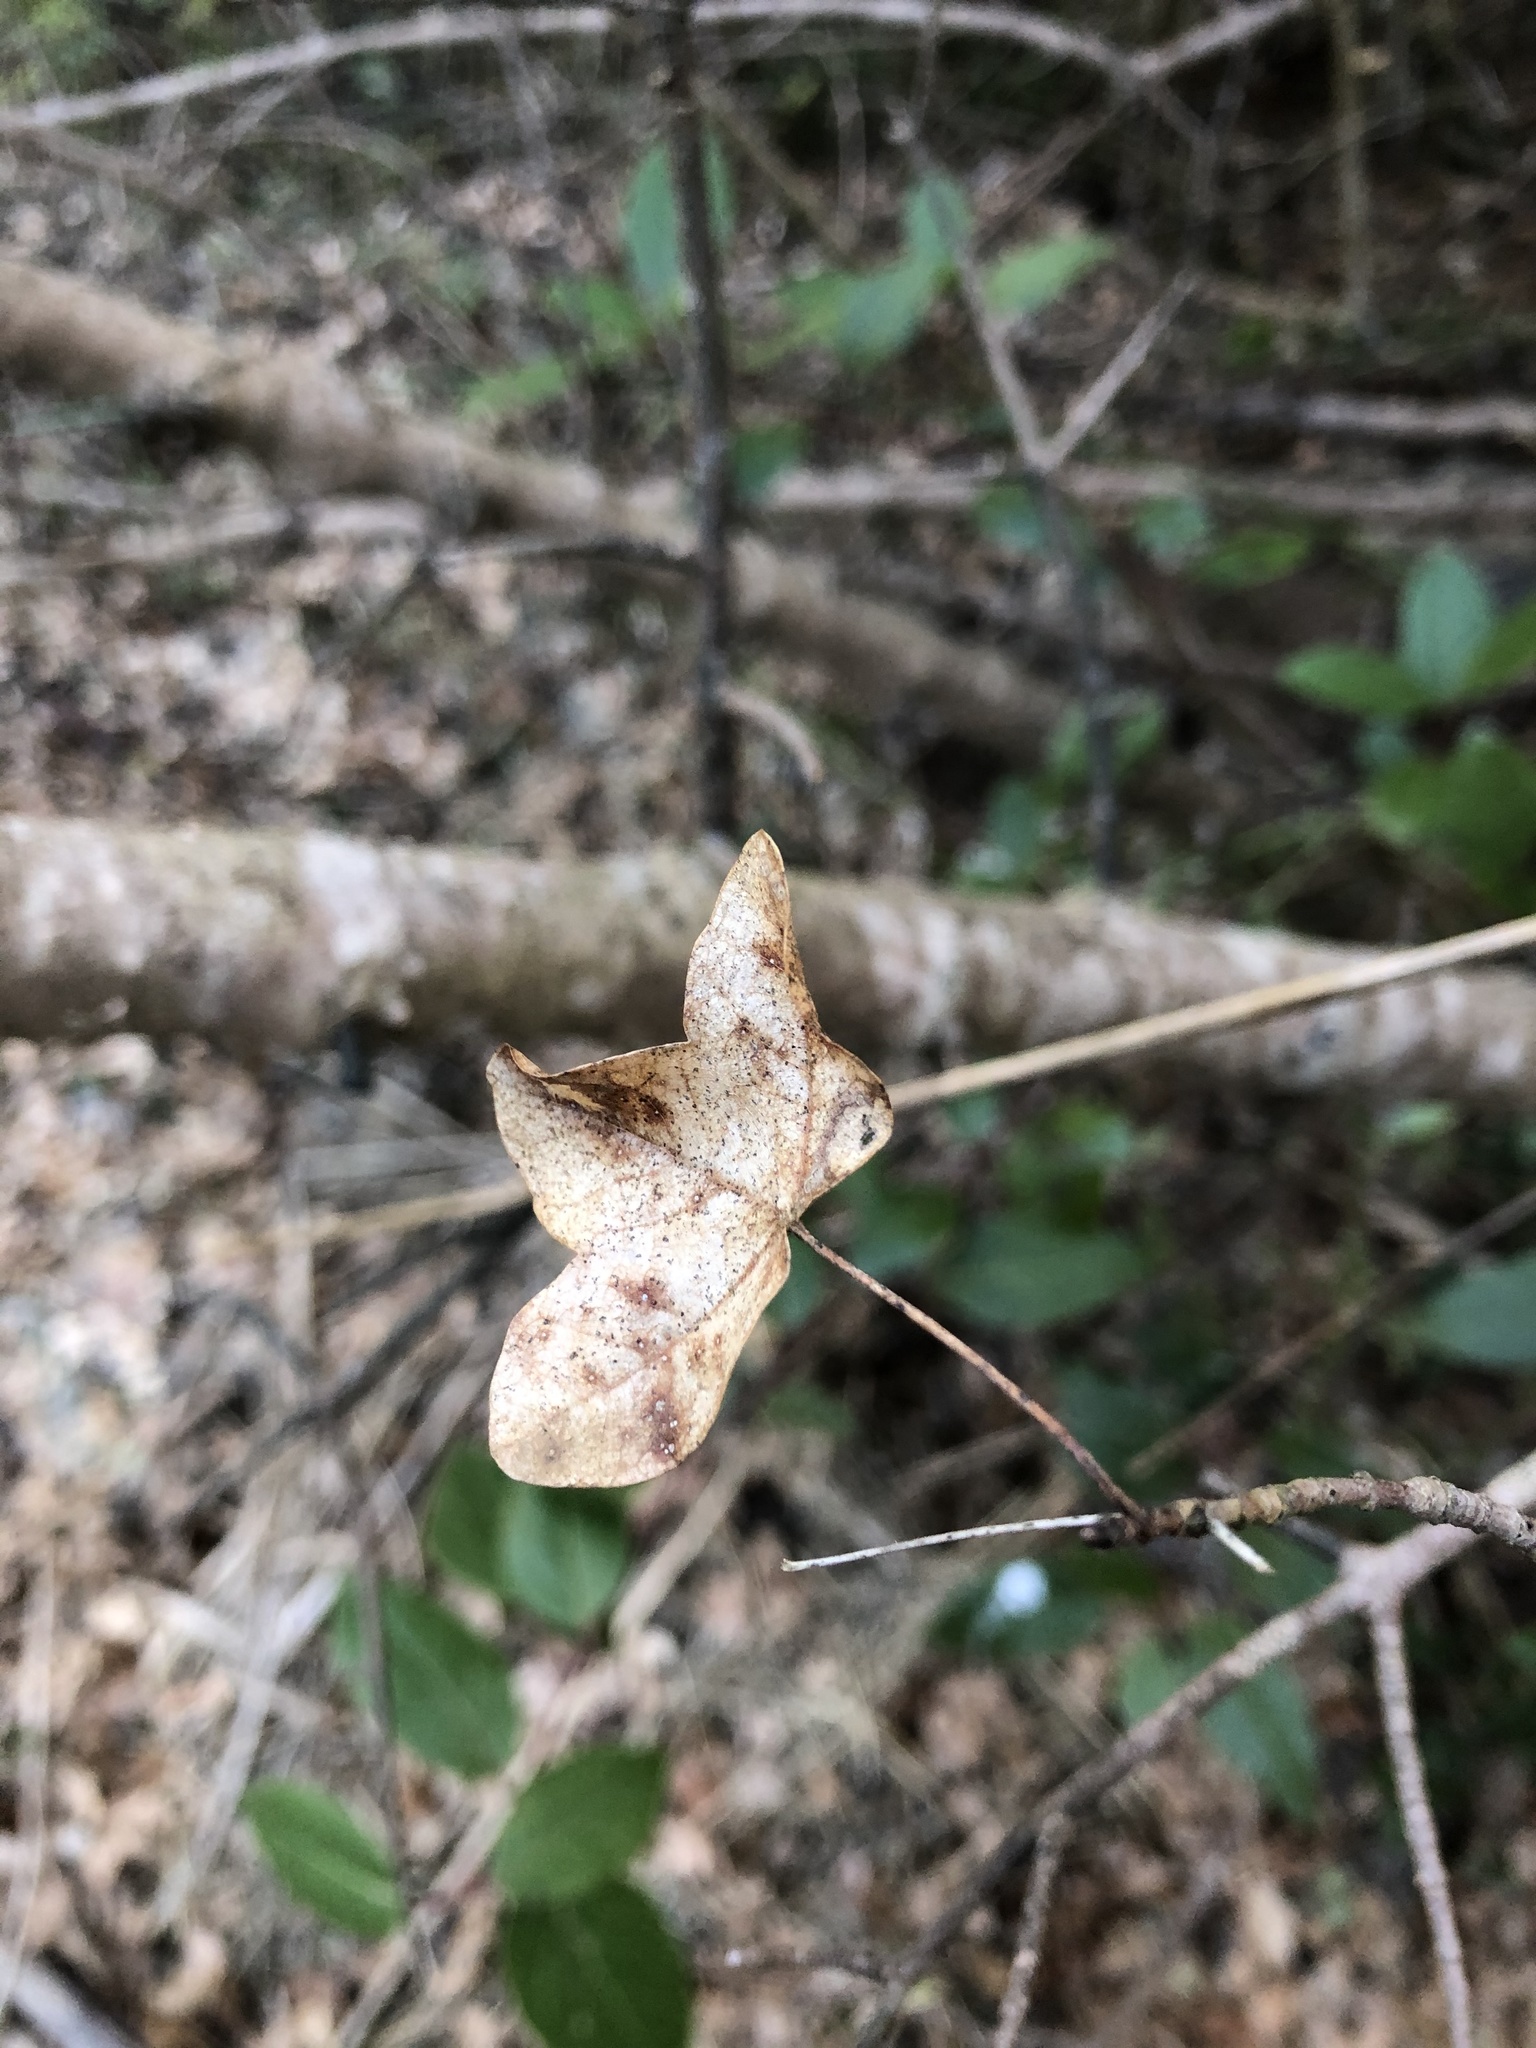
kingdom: Plantae
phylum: Tracheophyta
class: Magnoliopsida
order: Sapindales
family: Sapindaceae
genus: Acer
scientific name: Acer monspessulanum
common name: Montpellier maple
